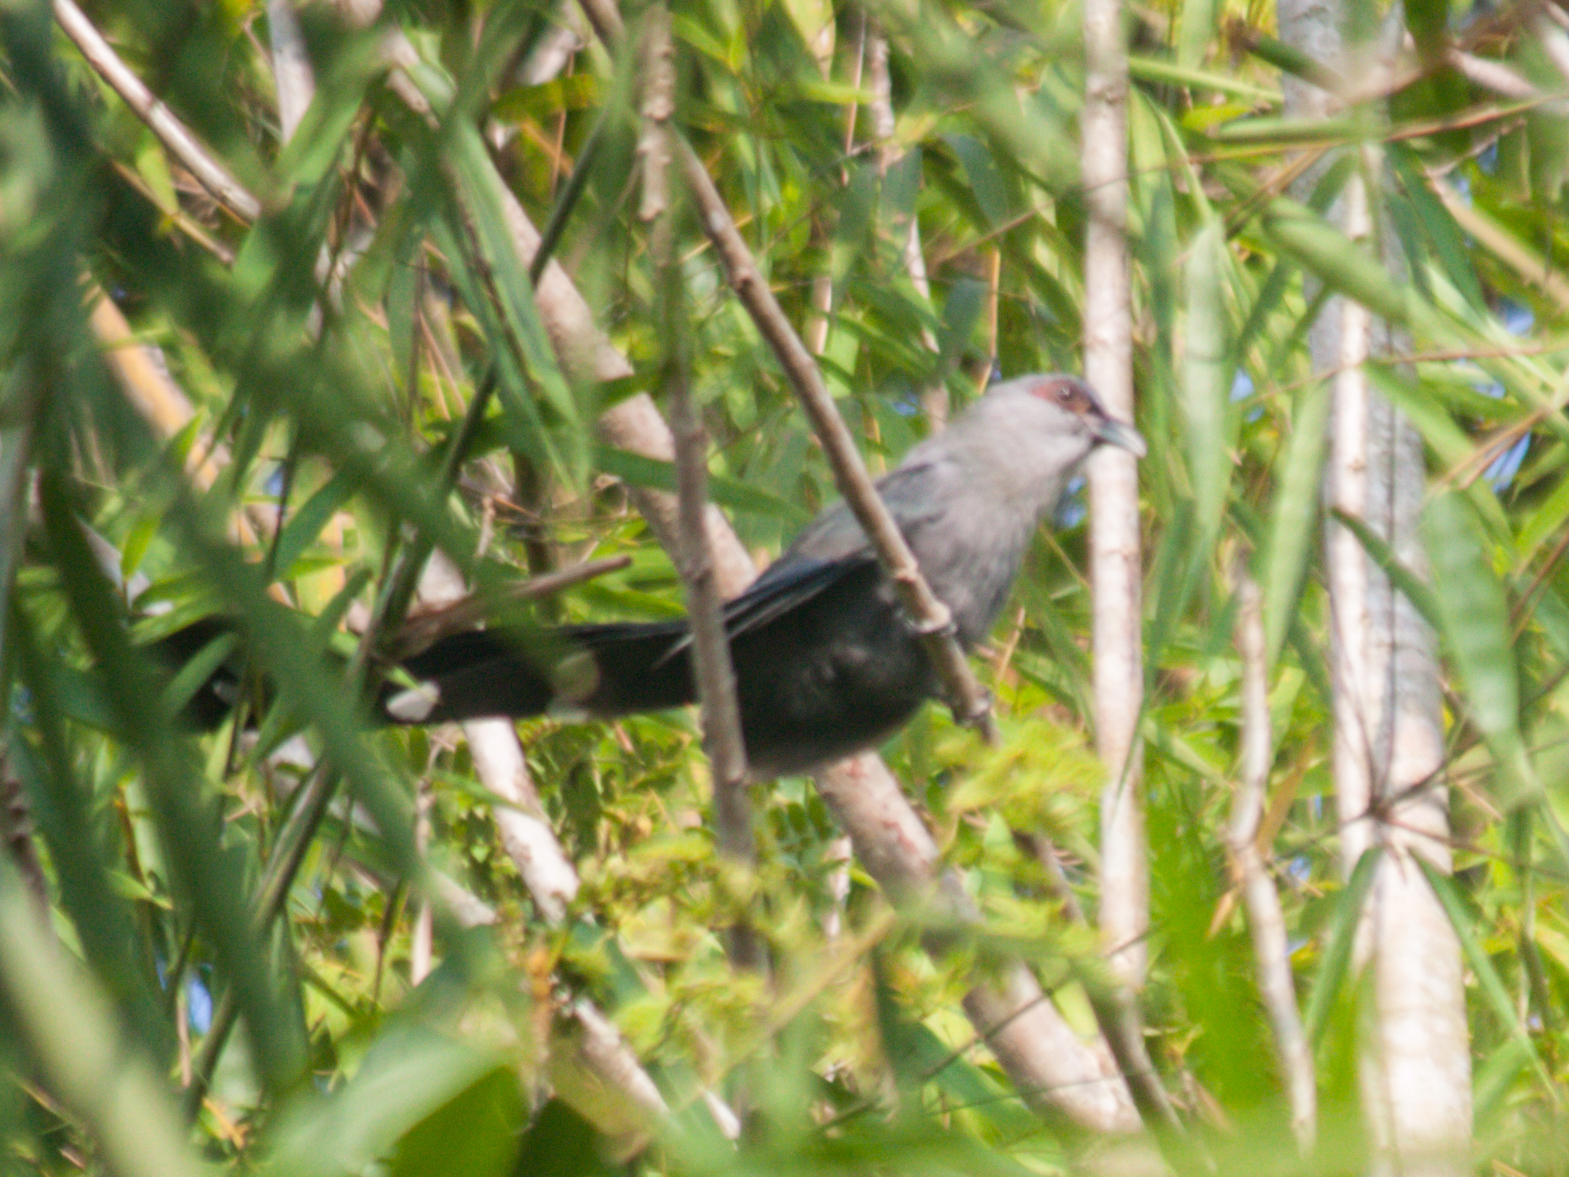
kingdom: Animalia
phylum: Chordata
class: Aves
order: Cuculiformes
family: Cuculidae
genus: Rhopodytes
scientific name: Rhopodytes tristis
